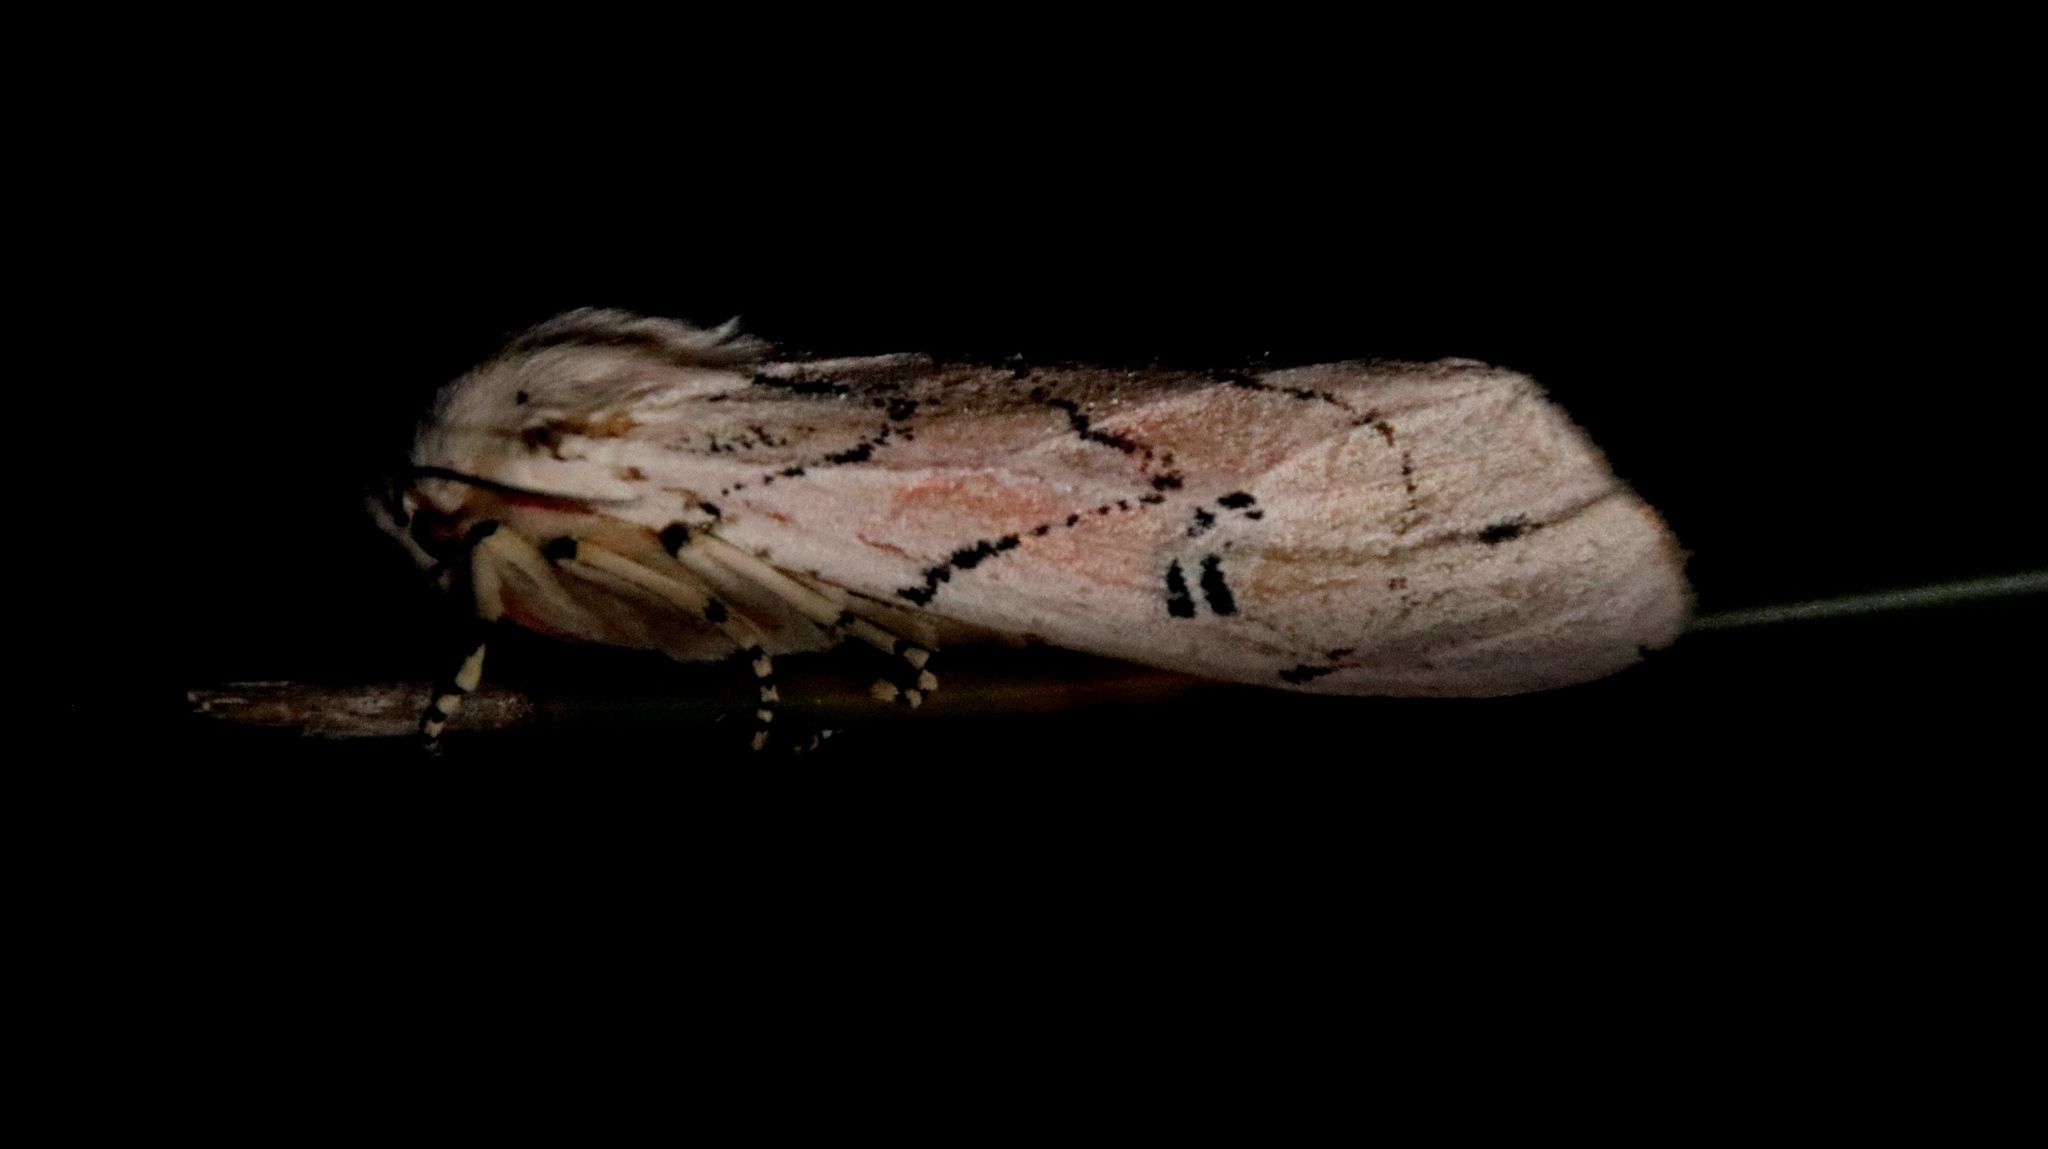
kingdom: Animalia
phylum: Arthropoda
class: Insecta
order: Lepidoptera
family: Erebidae
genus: Rhodogastria
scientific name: Rhodogastria amasis
